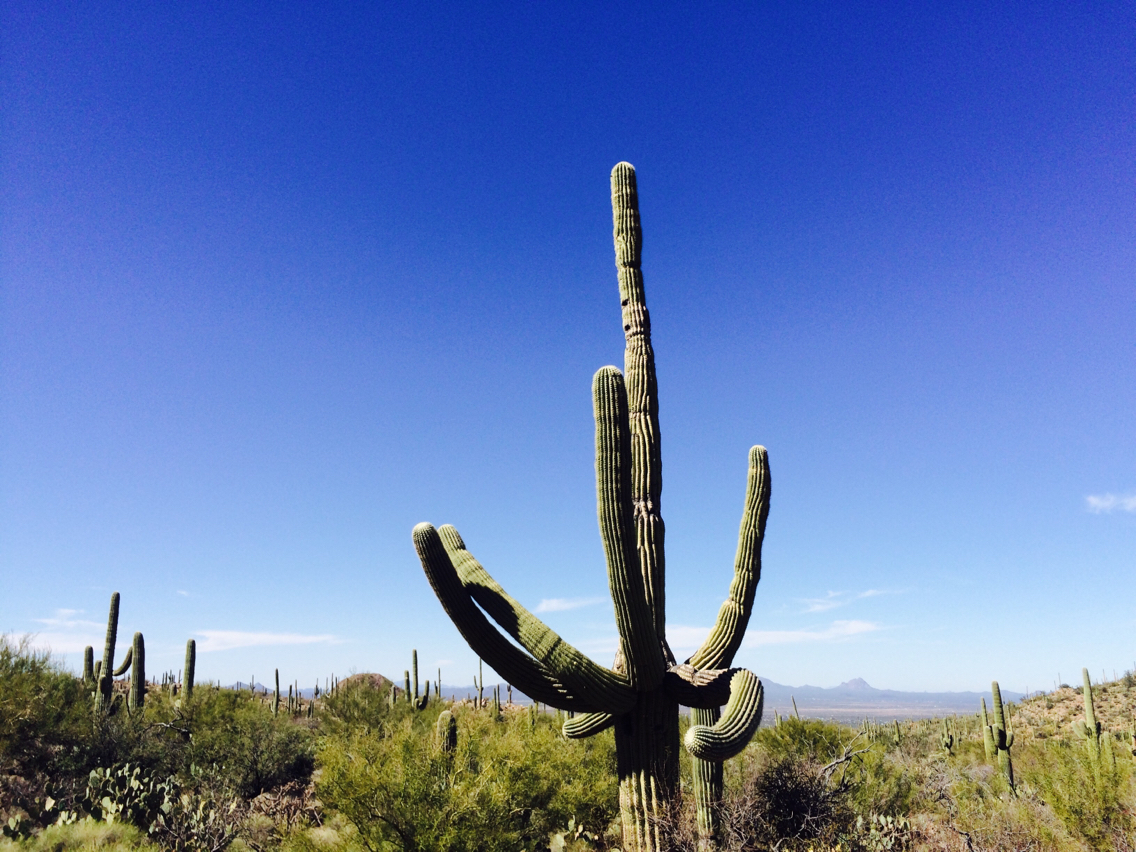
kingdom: Plantae
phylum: Tracheophyta
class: Magnoliopsida
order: Caryophyllales
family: Cactaceae
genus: Carnegiea
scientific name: Carnegiea gigantea
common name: Saguaro
